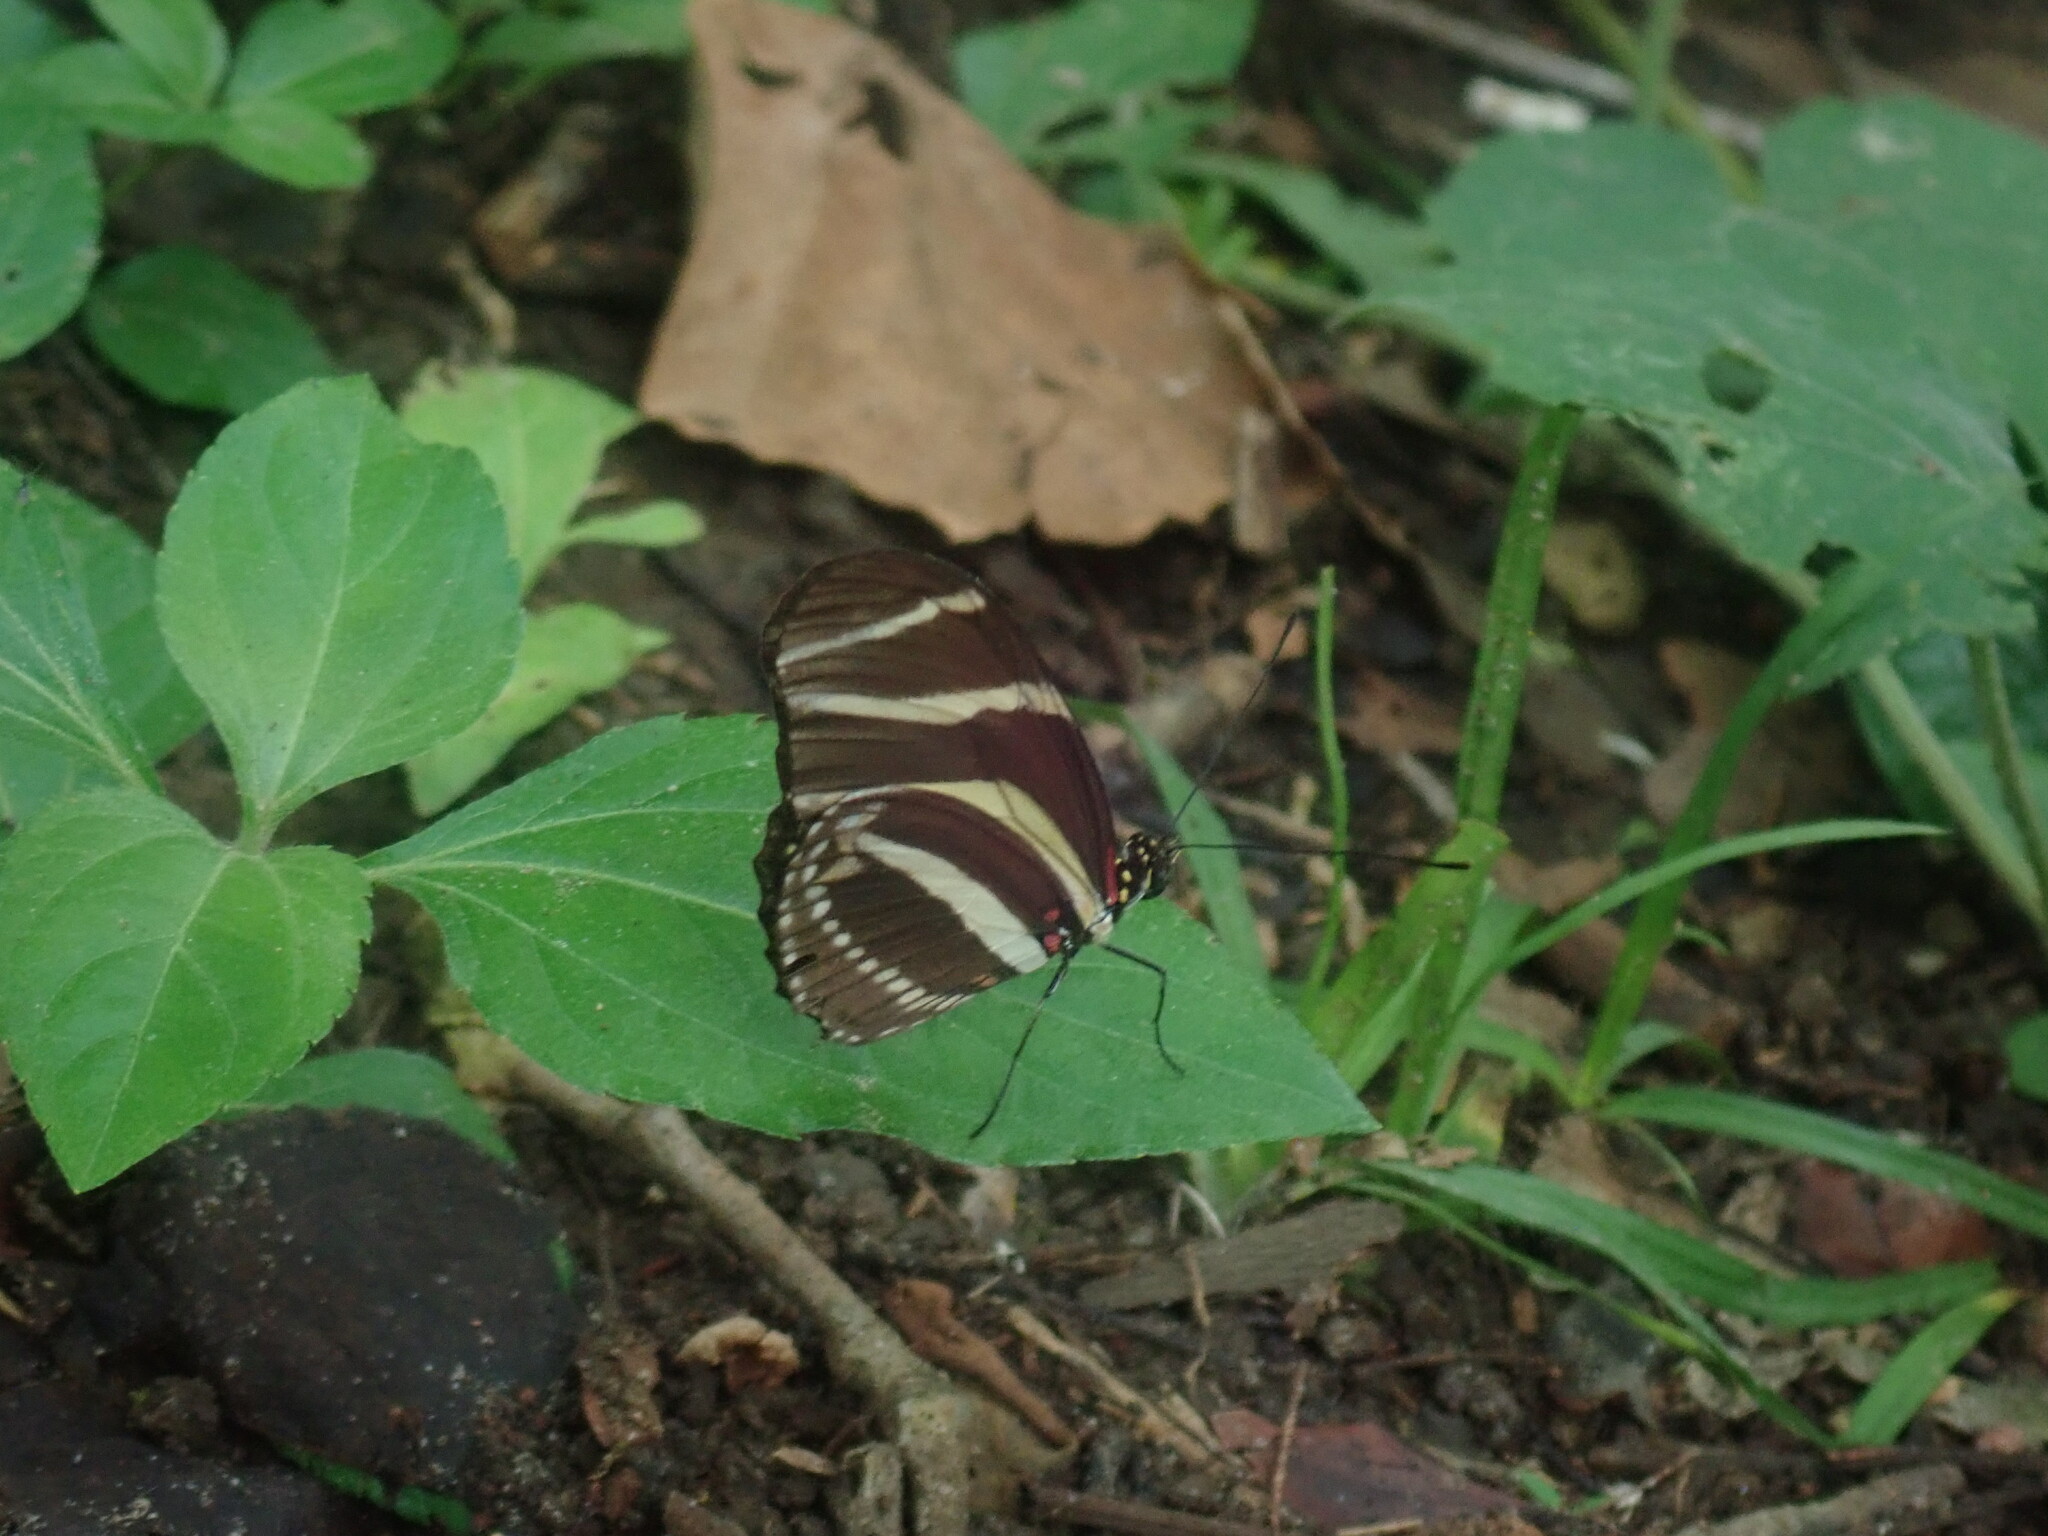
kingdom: Animalia
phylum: Arthropoda
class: Insecta
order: Lepidoptera
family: Nymphalidae
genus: Heliconius
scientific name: Heliconius charithonia
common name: Zebra long wing
